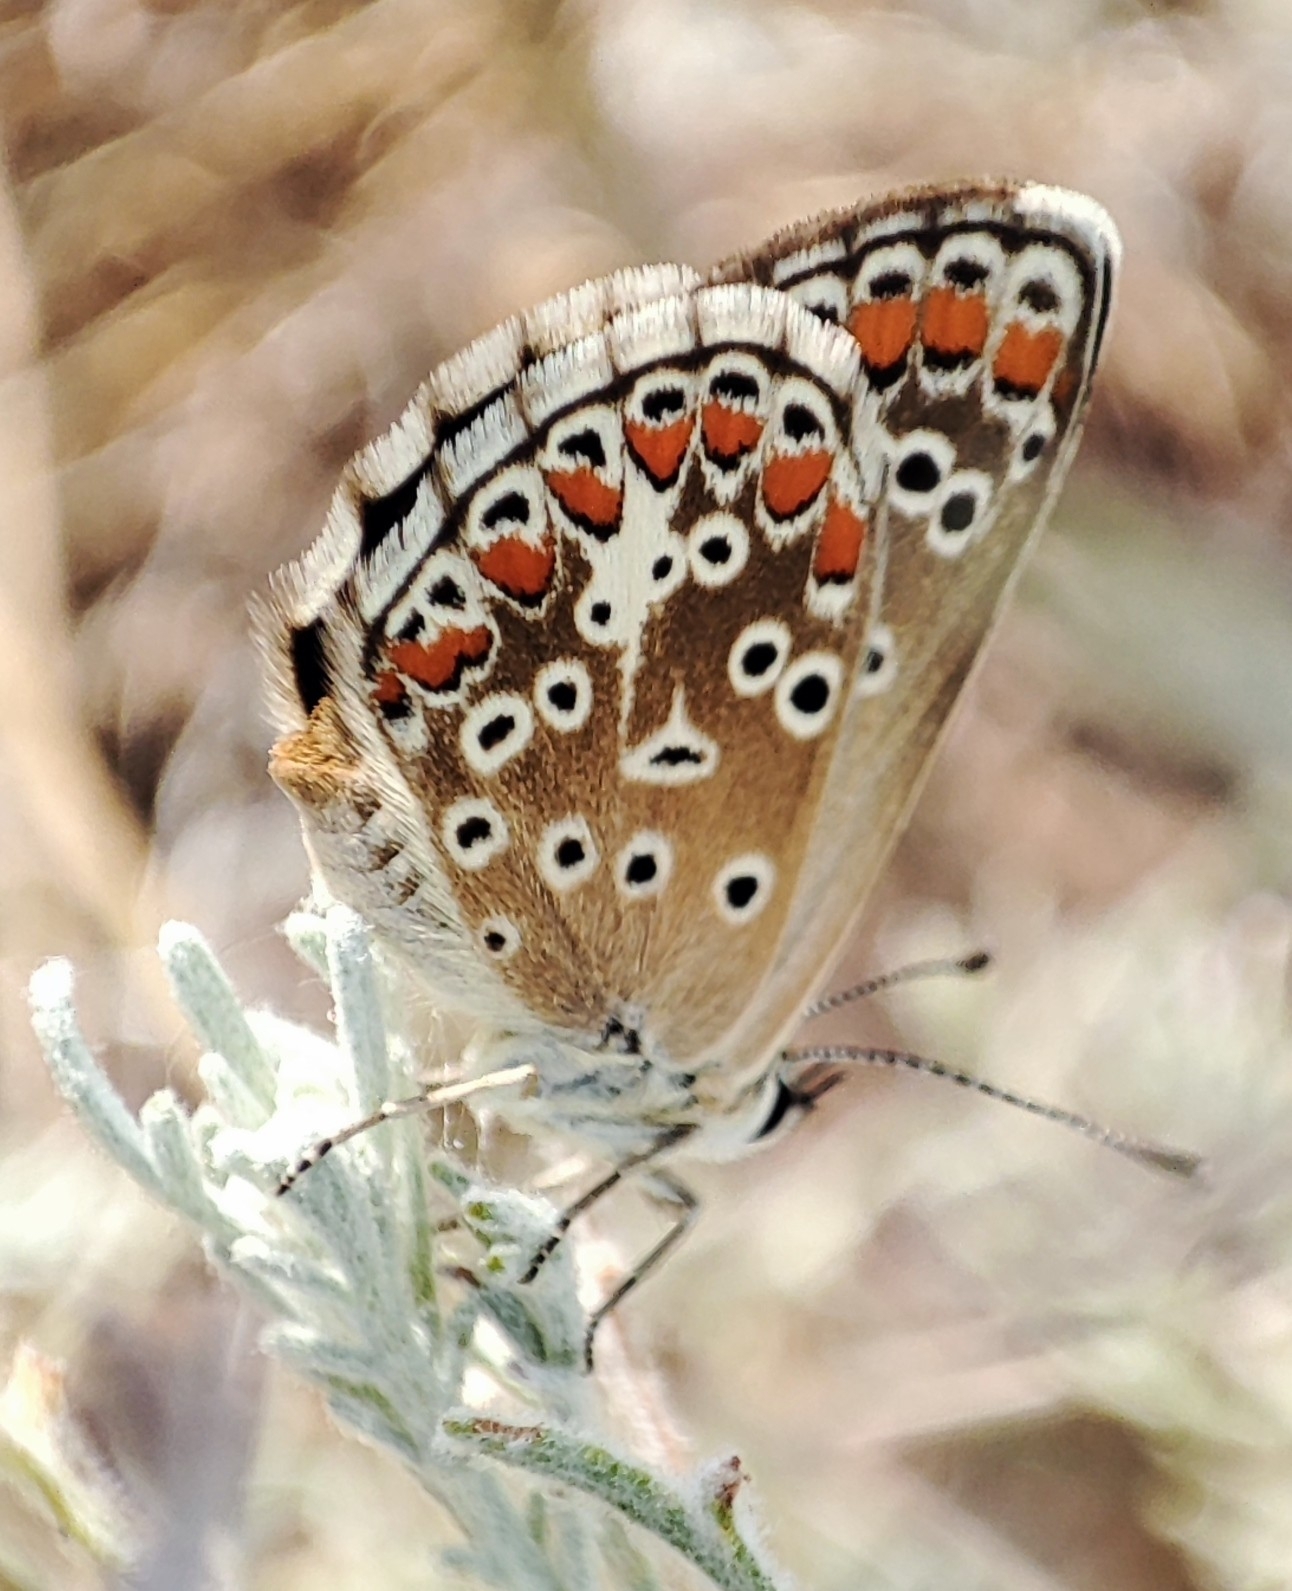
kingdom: Animalia
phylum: Arthropoda
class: Insecta
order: Lepidoptera
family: Lycaenidae
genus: Aricia
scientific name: Aricia agestis
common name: Brown argus
